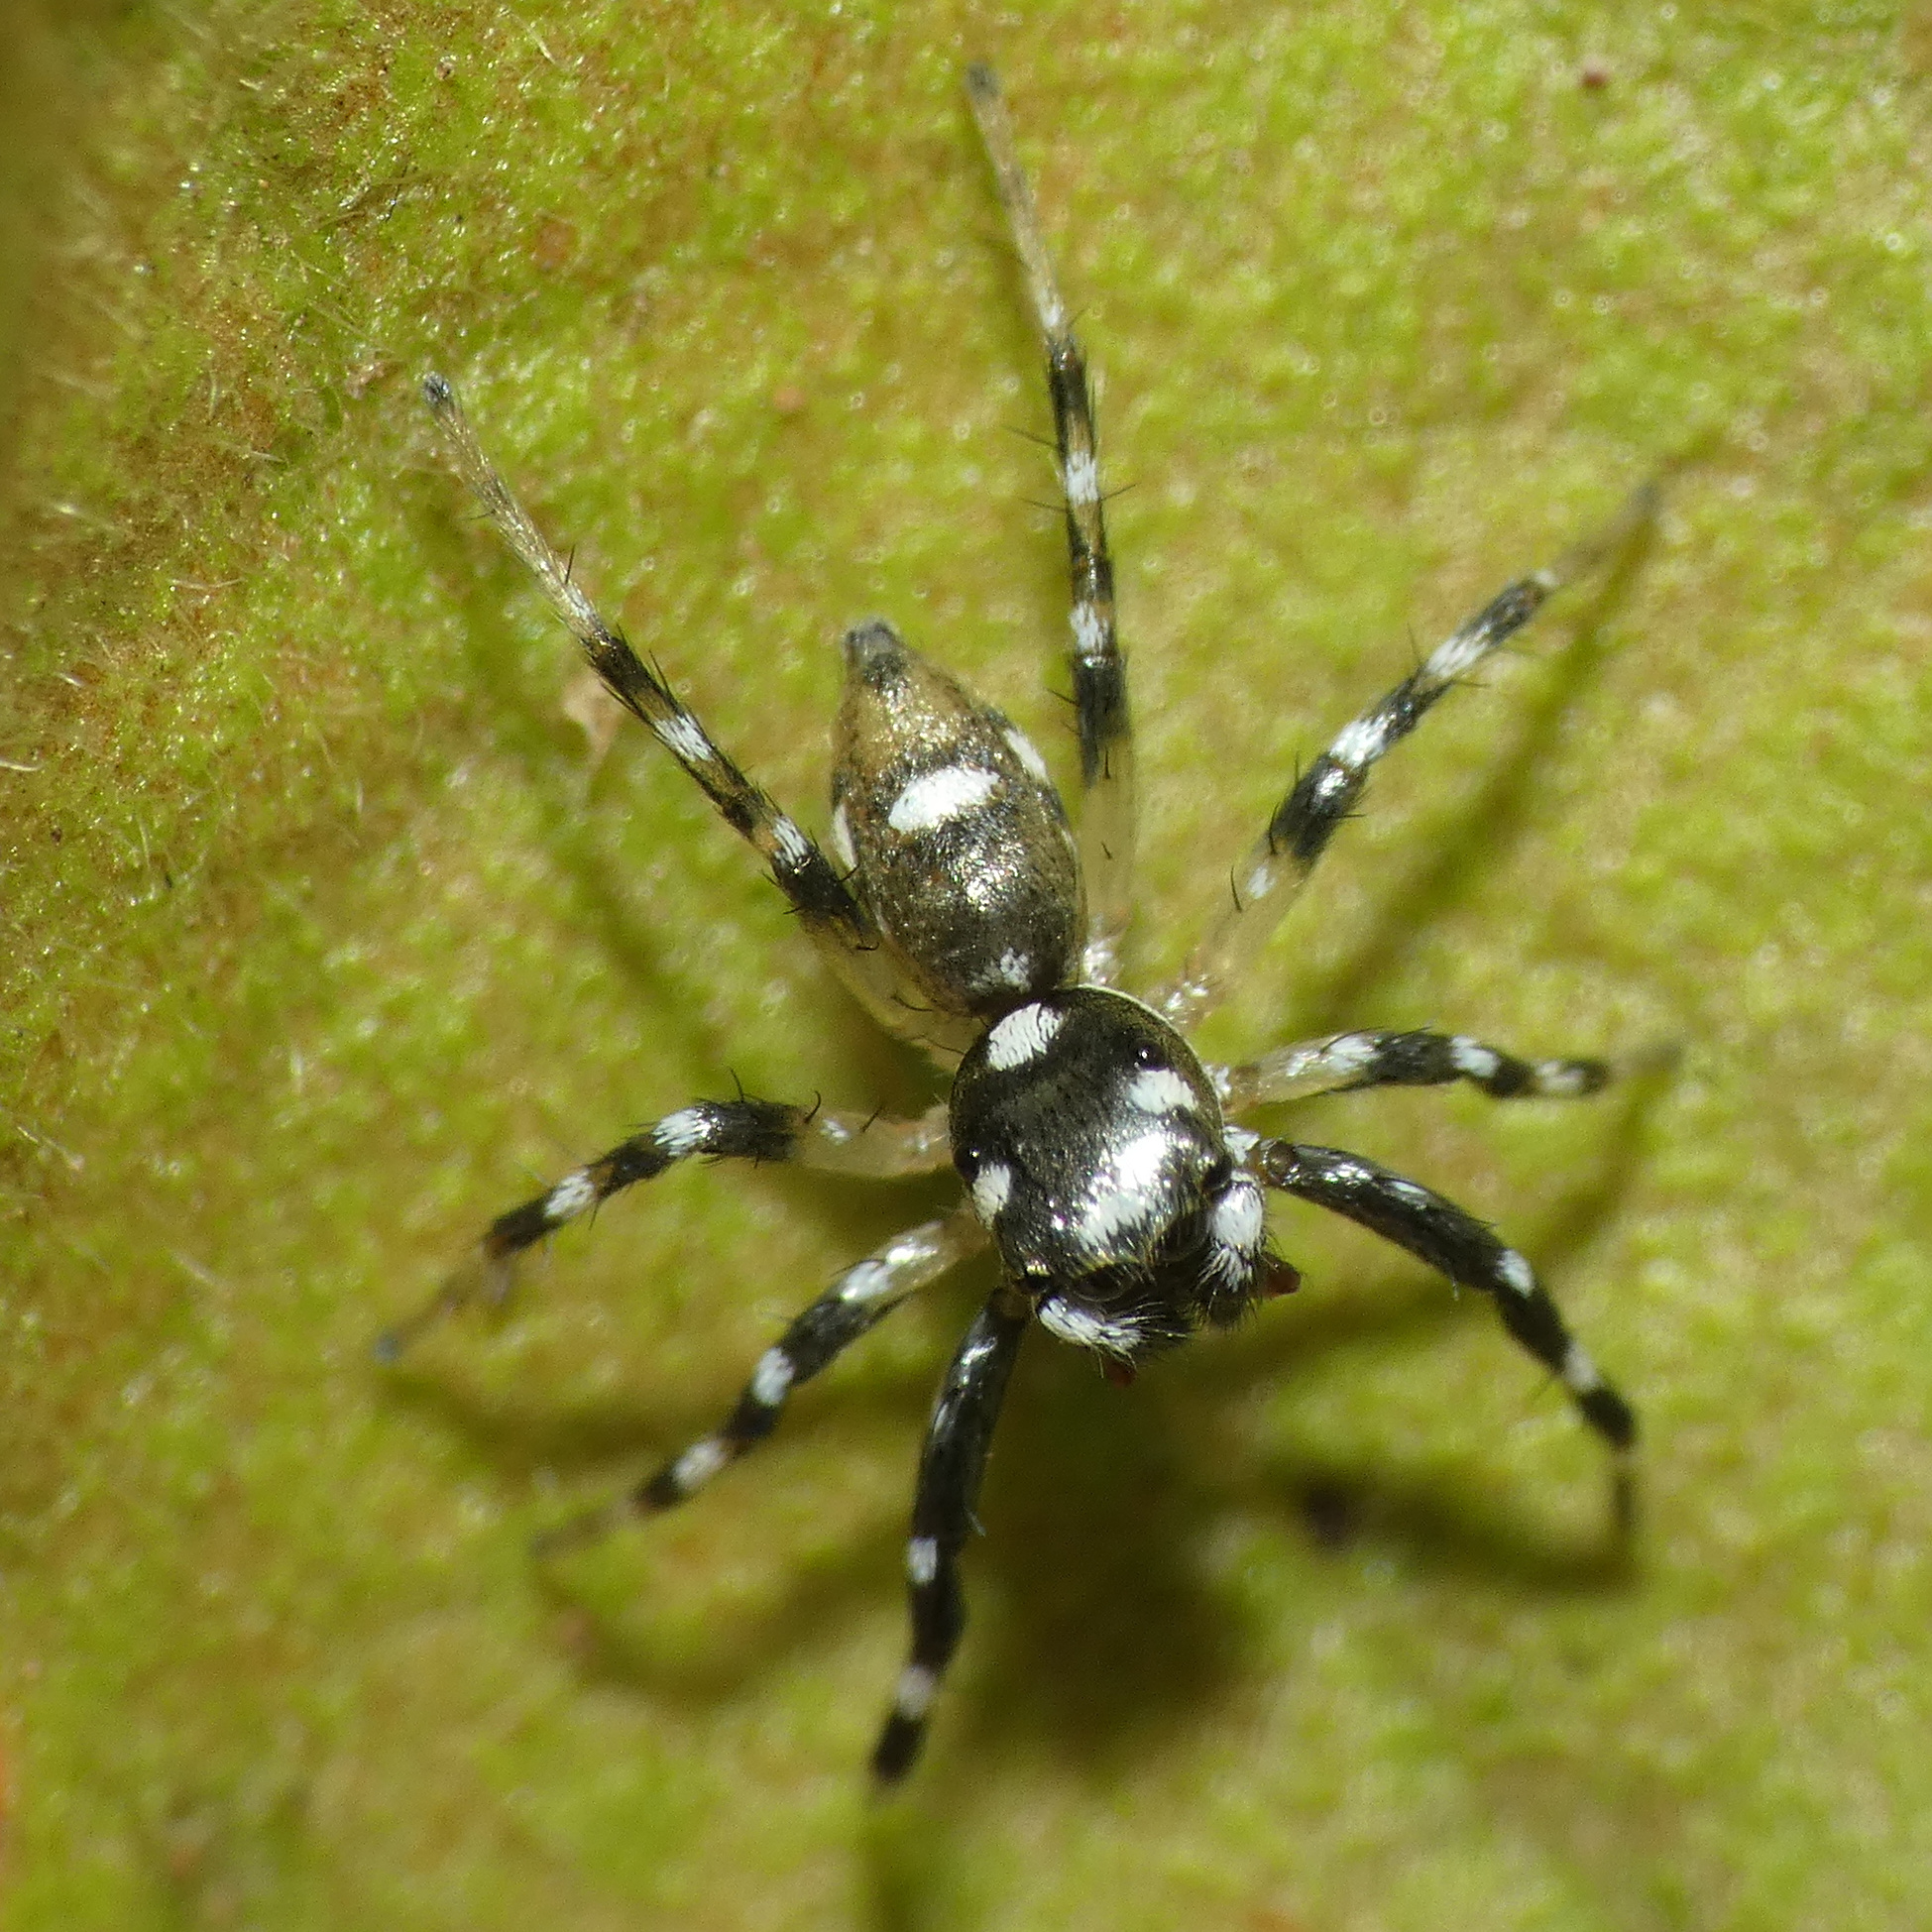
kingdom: Animalia
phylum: Arthropoda
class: Arachnida
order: Araneae
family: Salticidae
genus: Phintella
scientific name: Phintella aequipes
